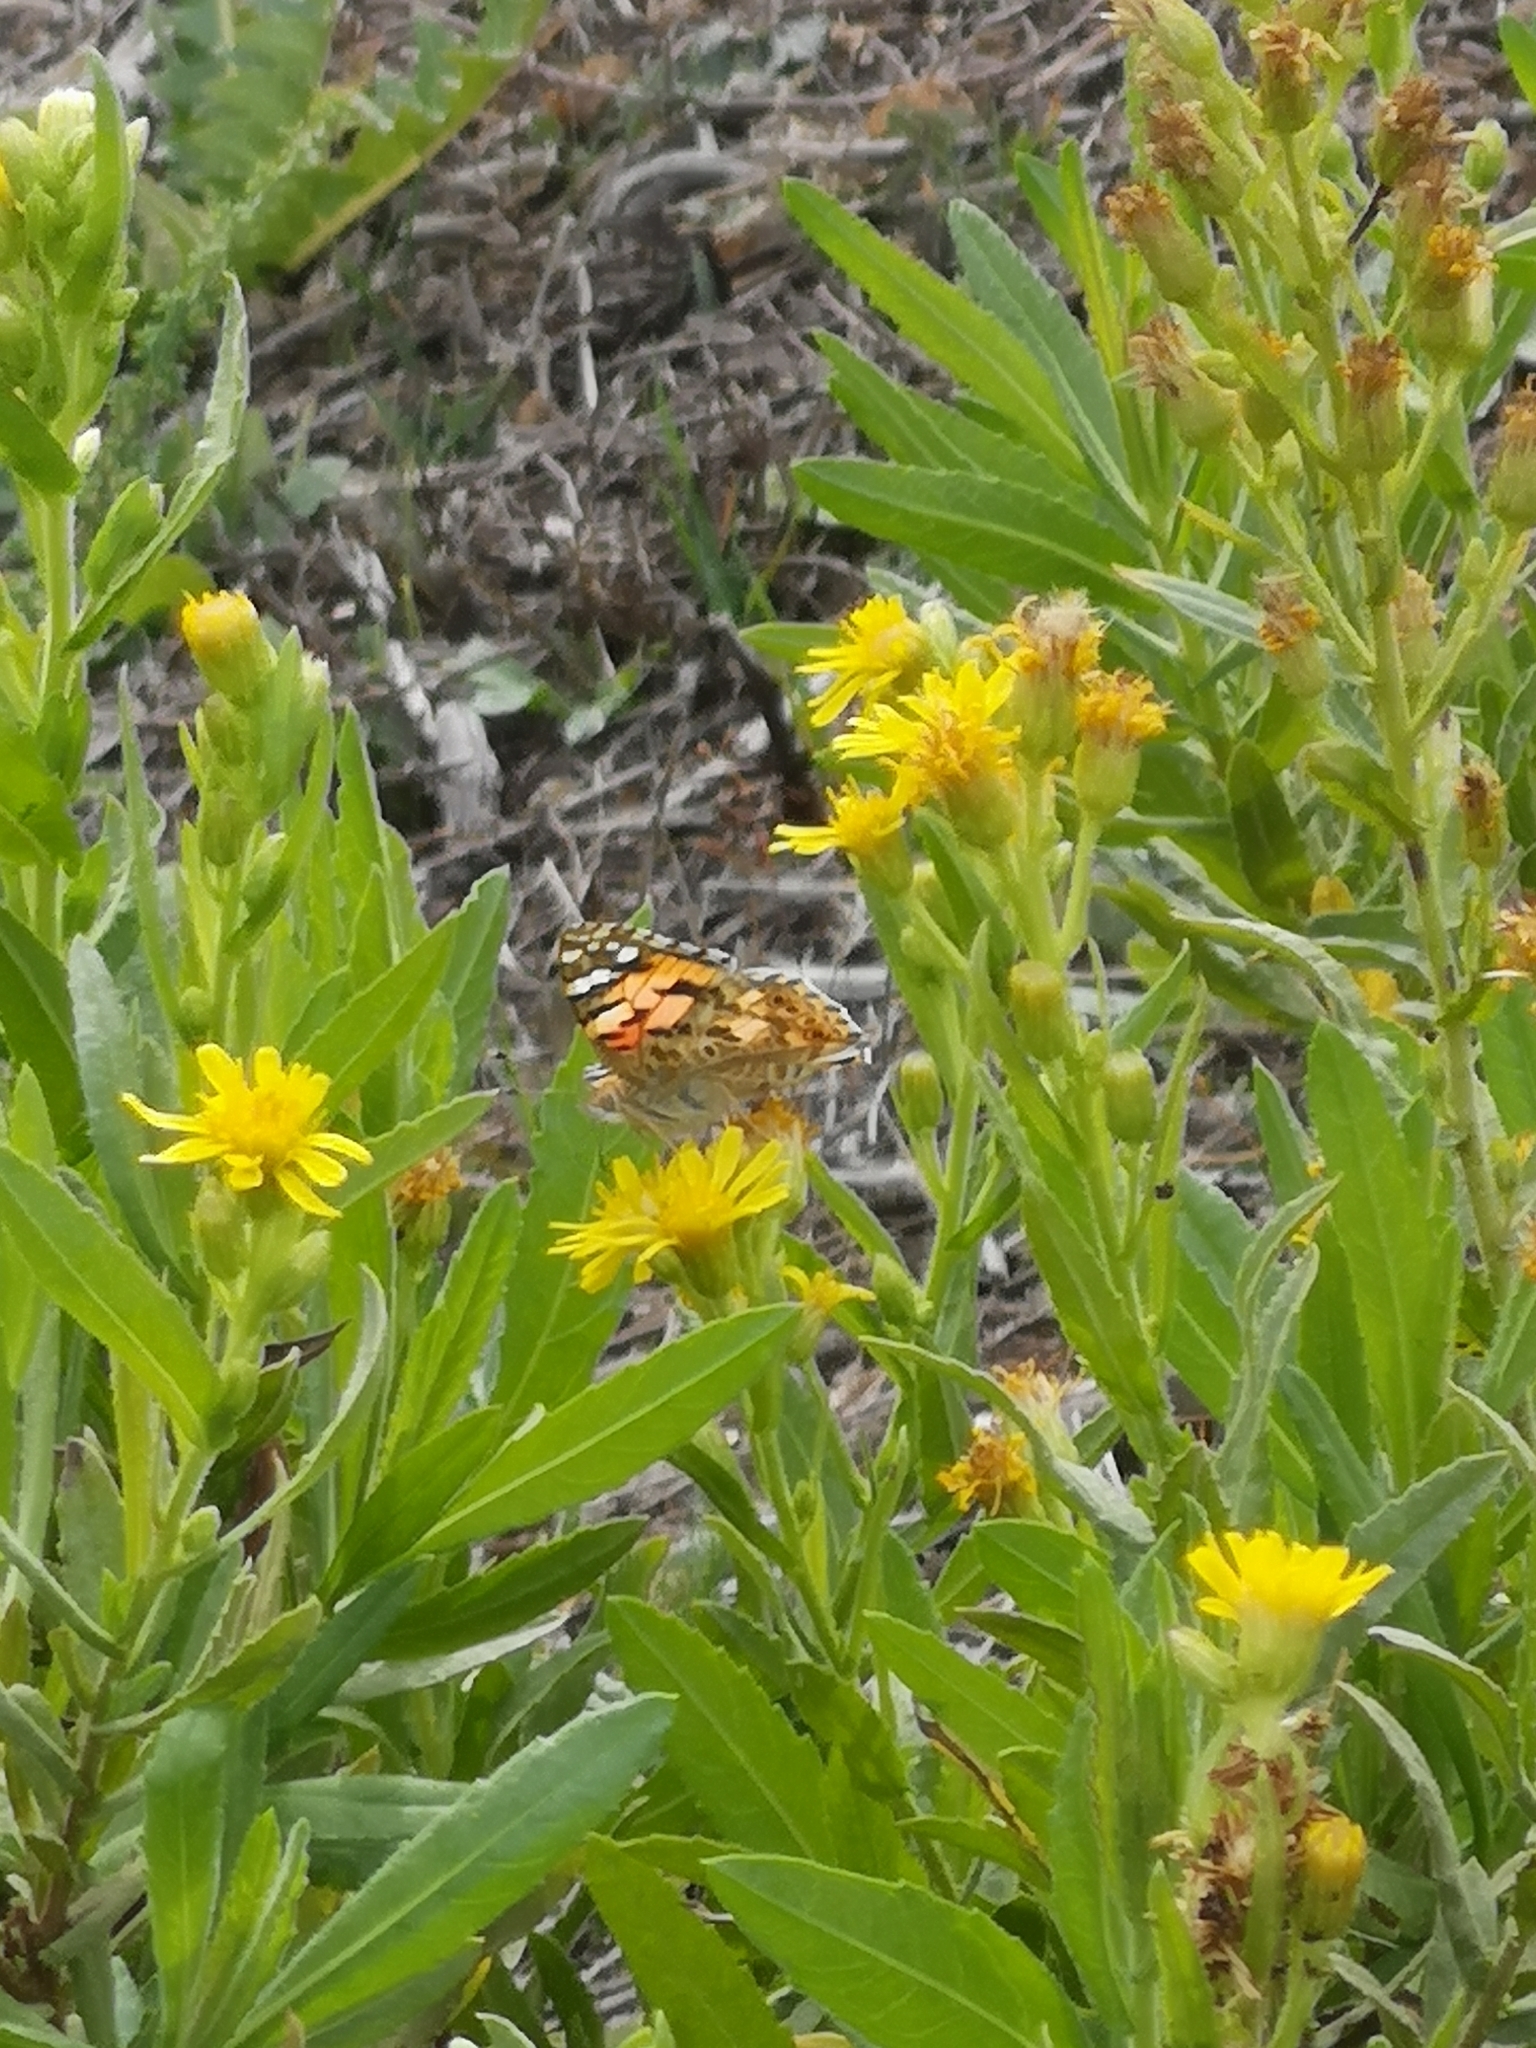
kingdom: Animalia
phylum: Arthropoda
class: Insecta
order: Lepidoptera
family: Nymphalidae
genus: Vanessa
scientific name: Vanessa cardui
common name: Painted lady
